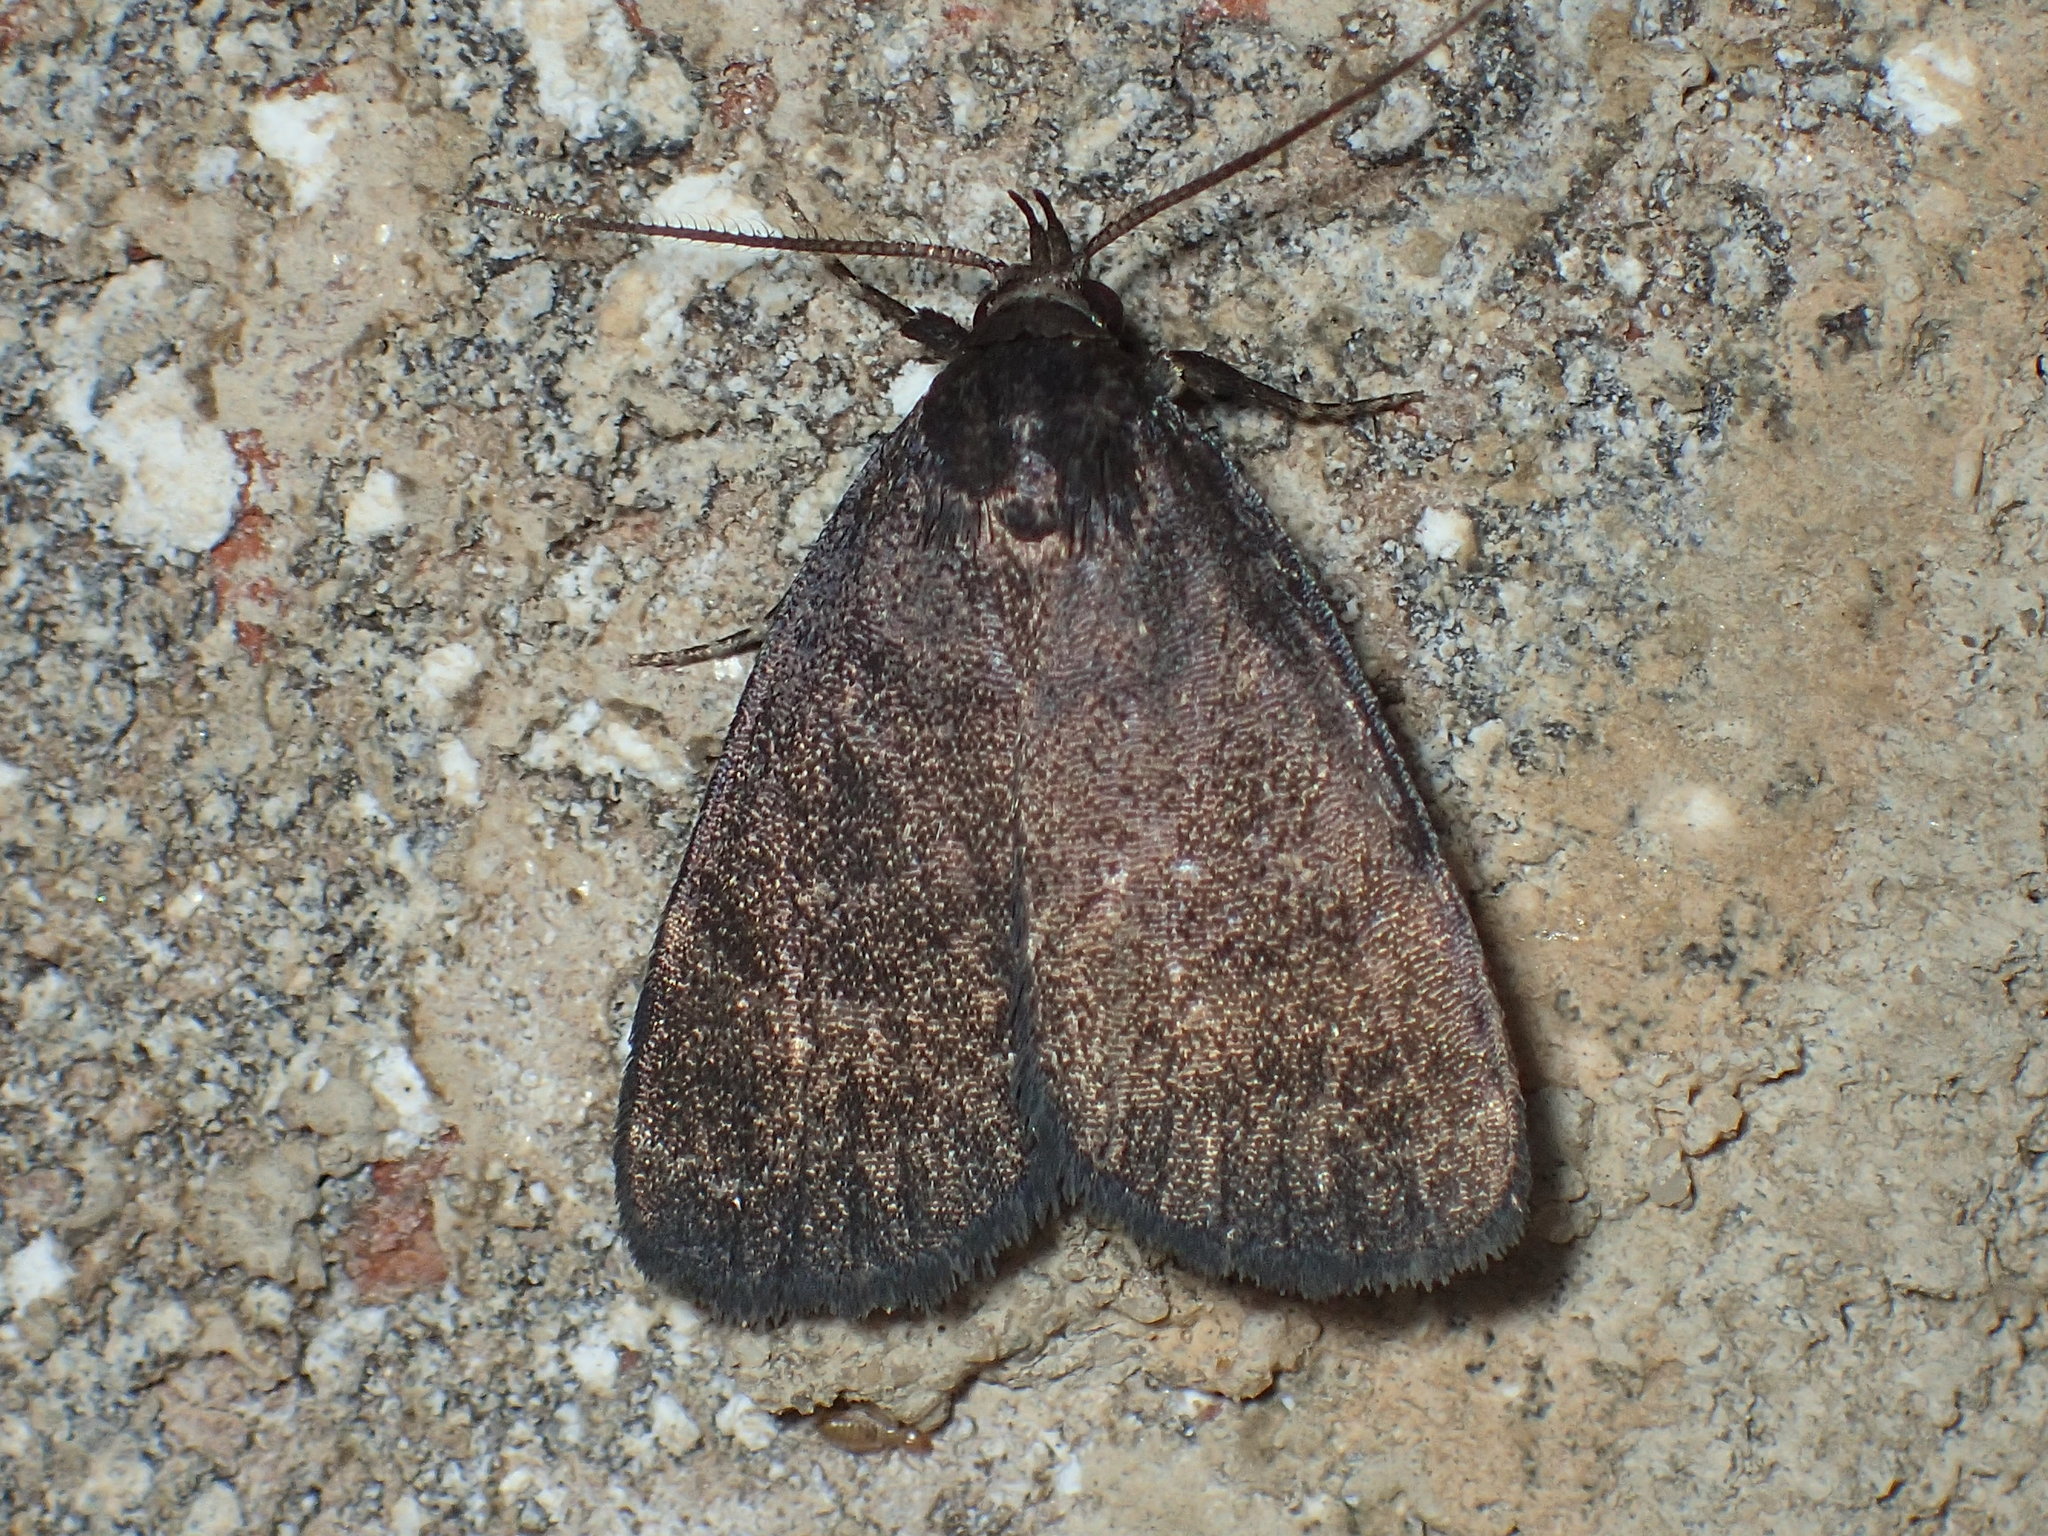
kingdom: Animalia
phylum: Arthropoda
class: Insecta
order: Lepidoptera
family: Erebidae
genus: Idia
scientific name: Idia rotundalis
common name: Rotund idia moth
